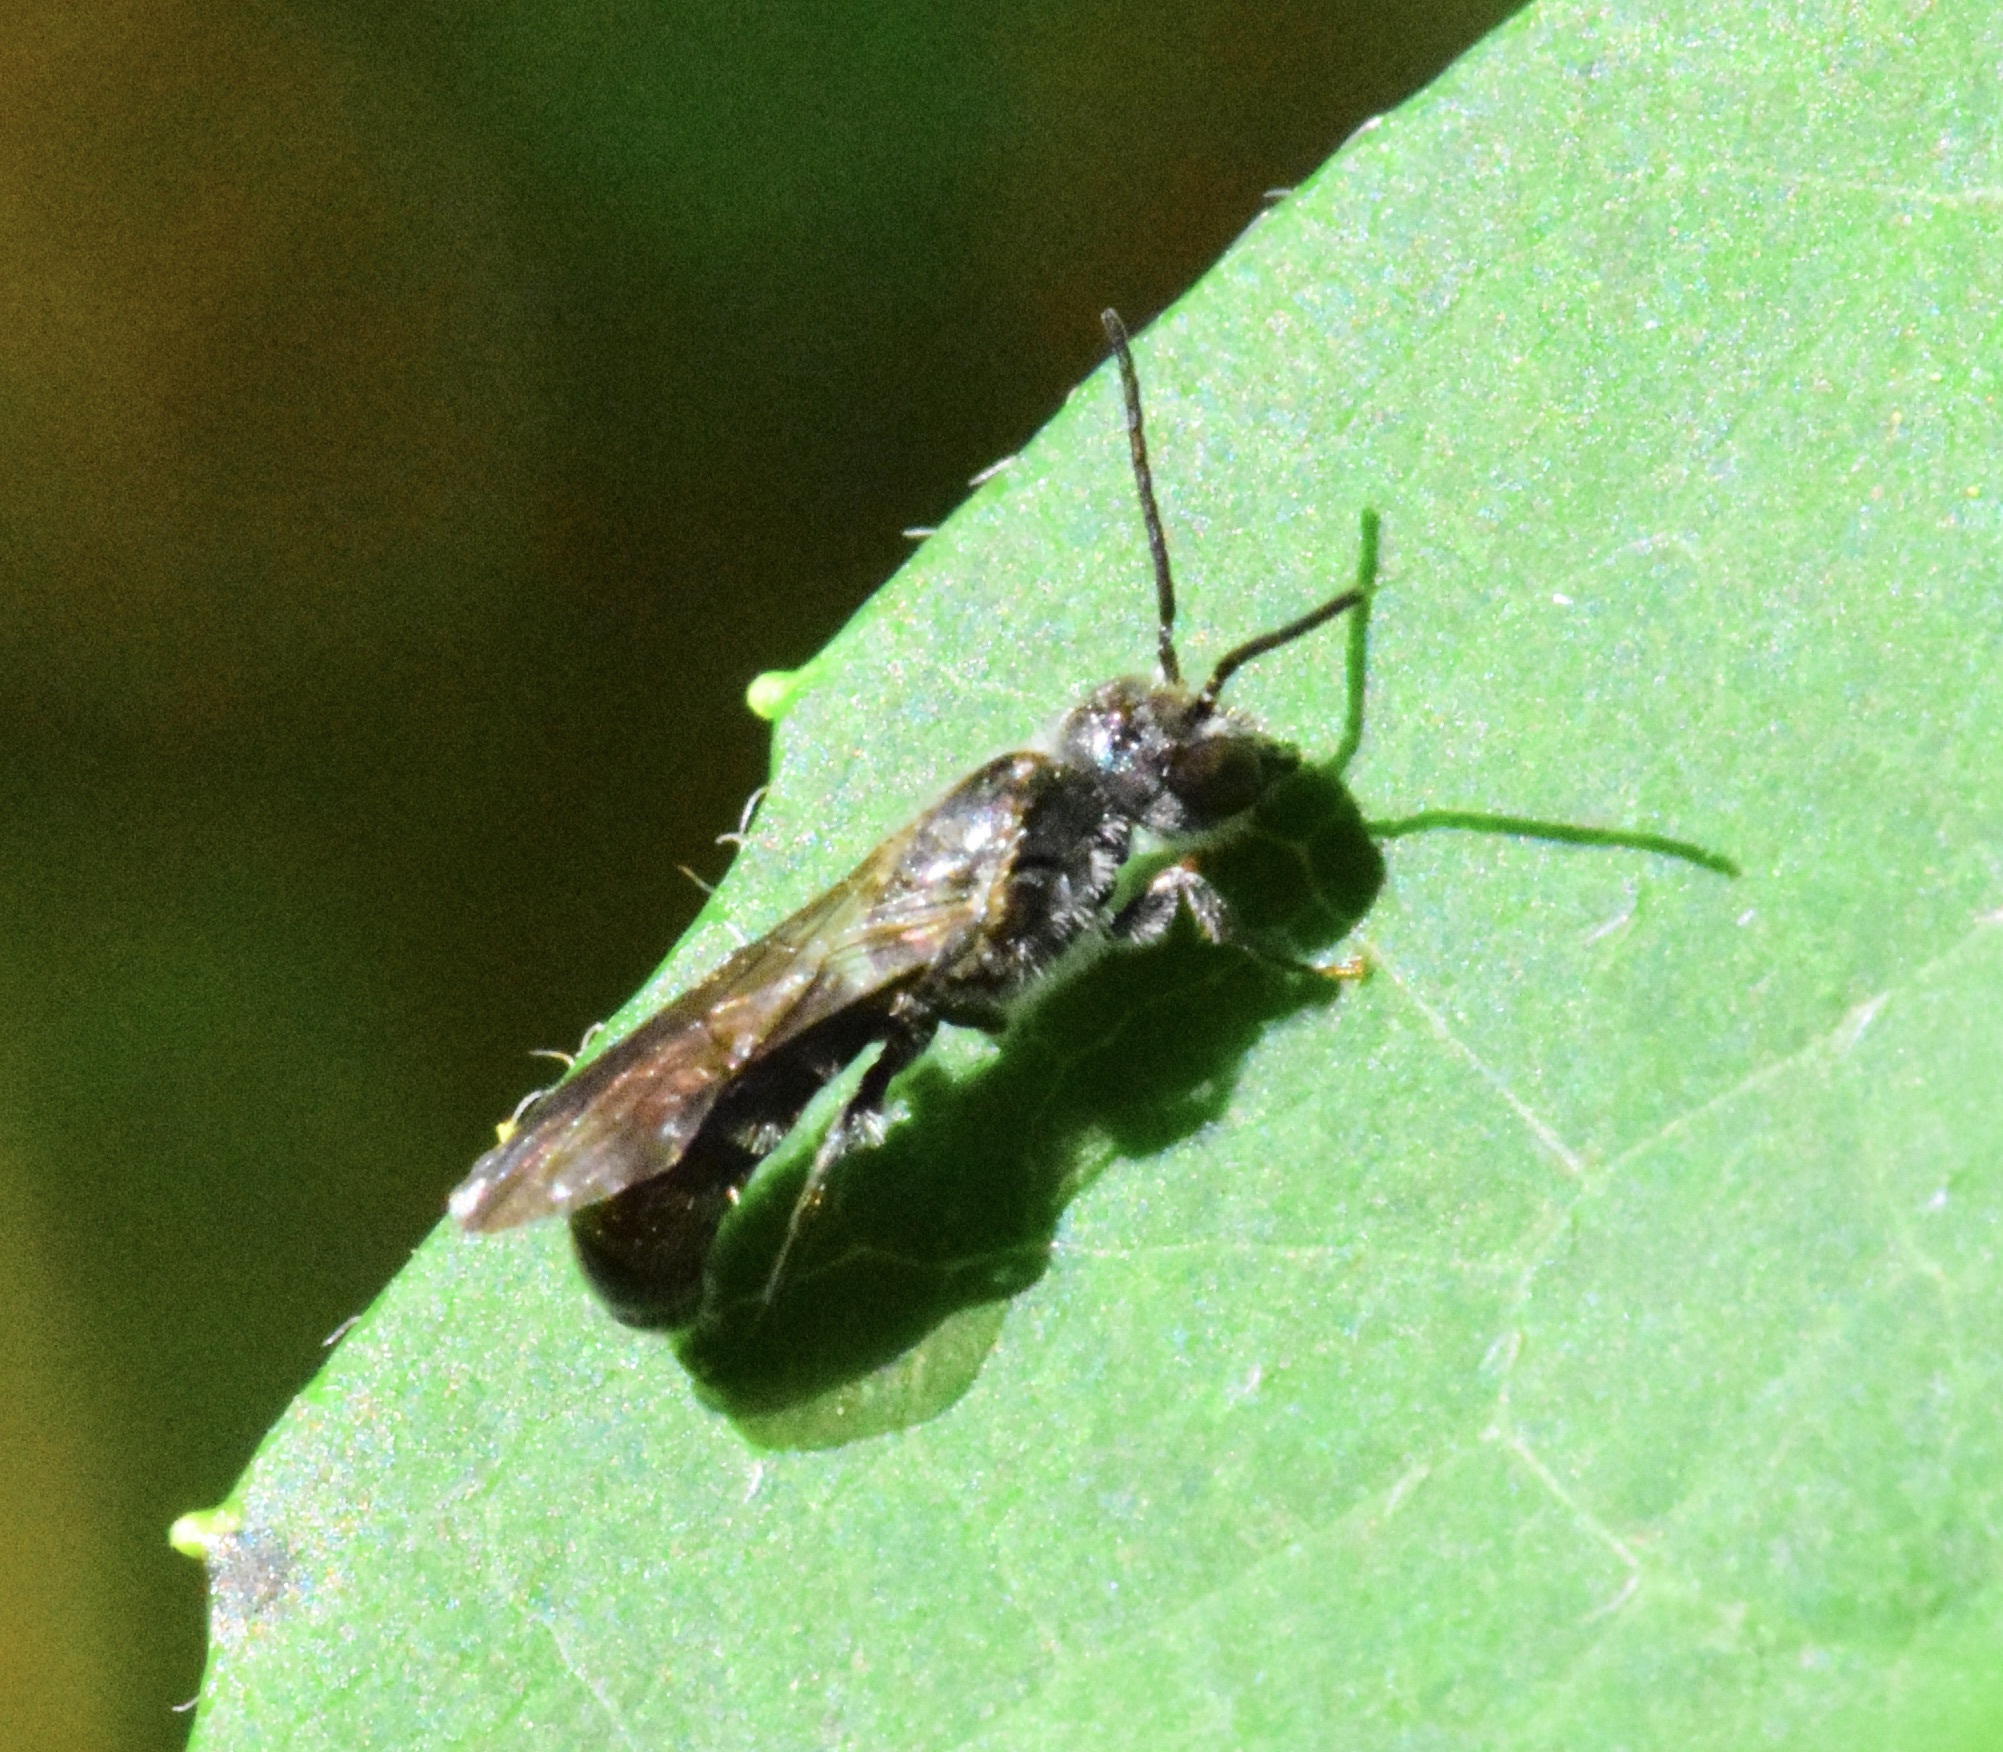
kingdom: Animalia
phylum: Arthropoda
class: Insecta
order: Hymenoptera
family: Megachilidae
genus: Chelostoma
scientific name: Chelostoma philadelphi
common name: Mock-orange scissor bee
